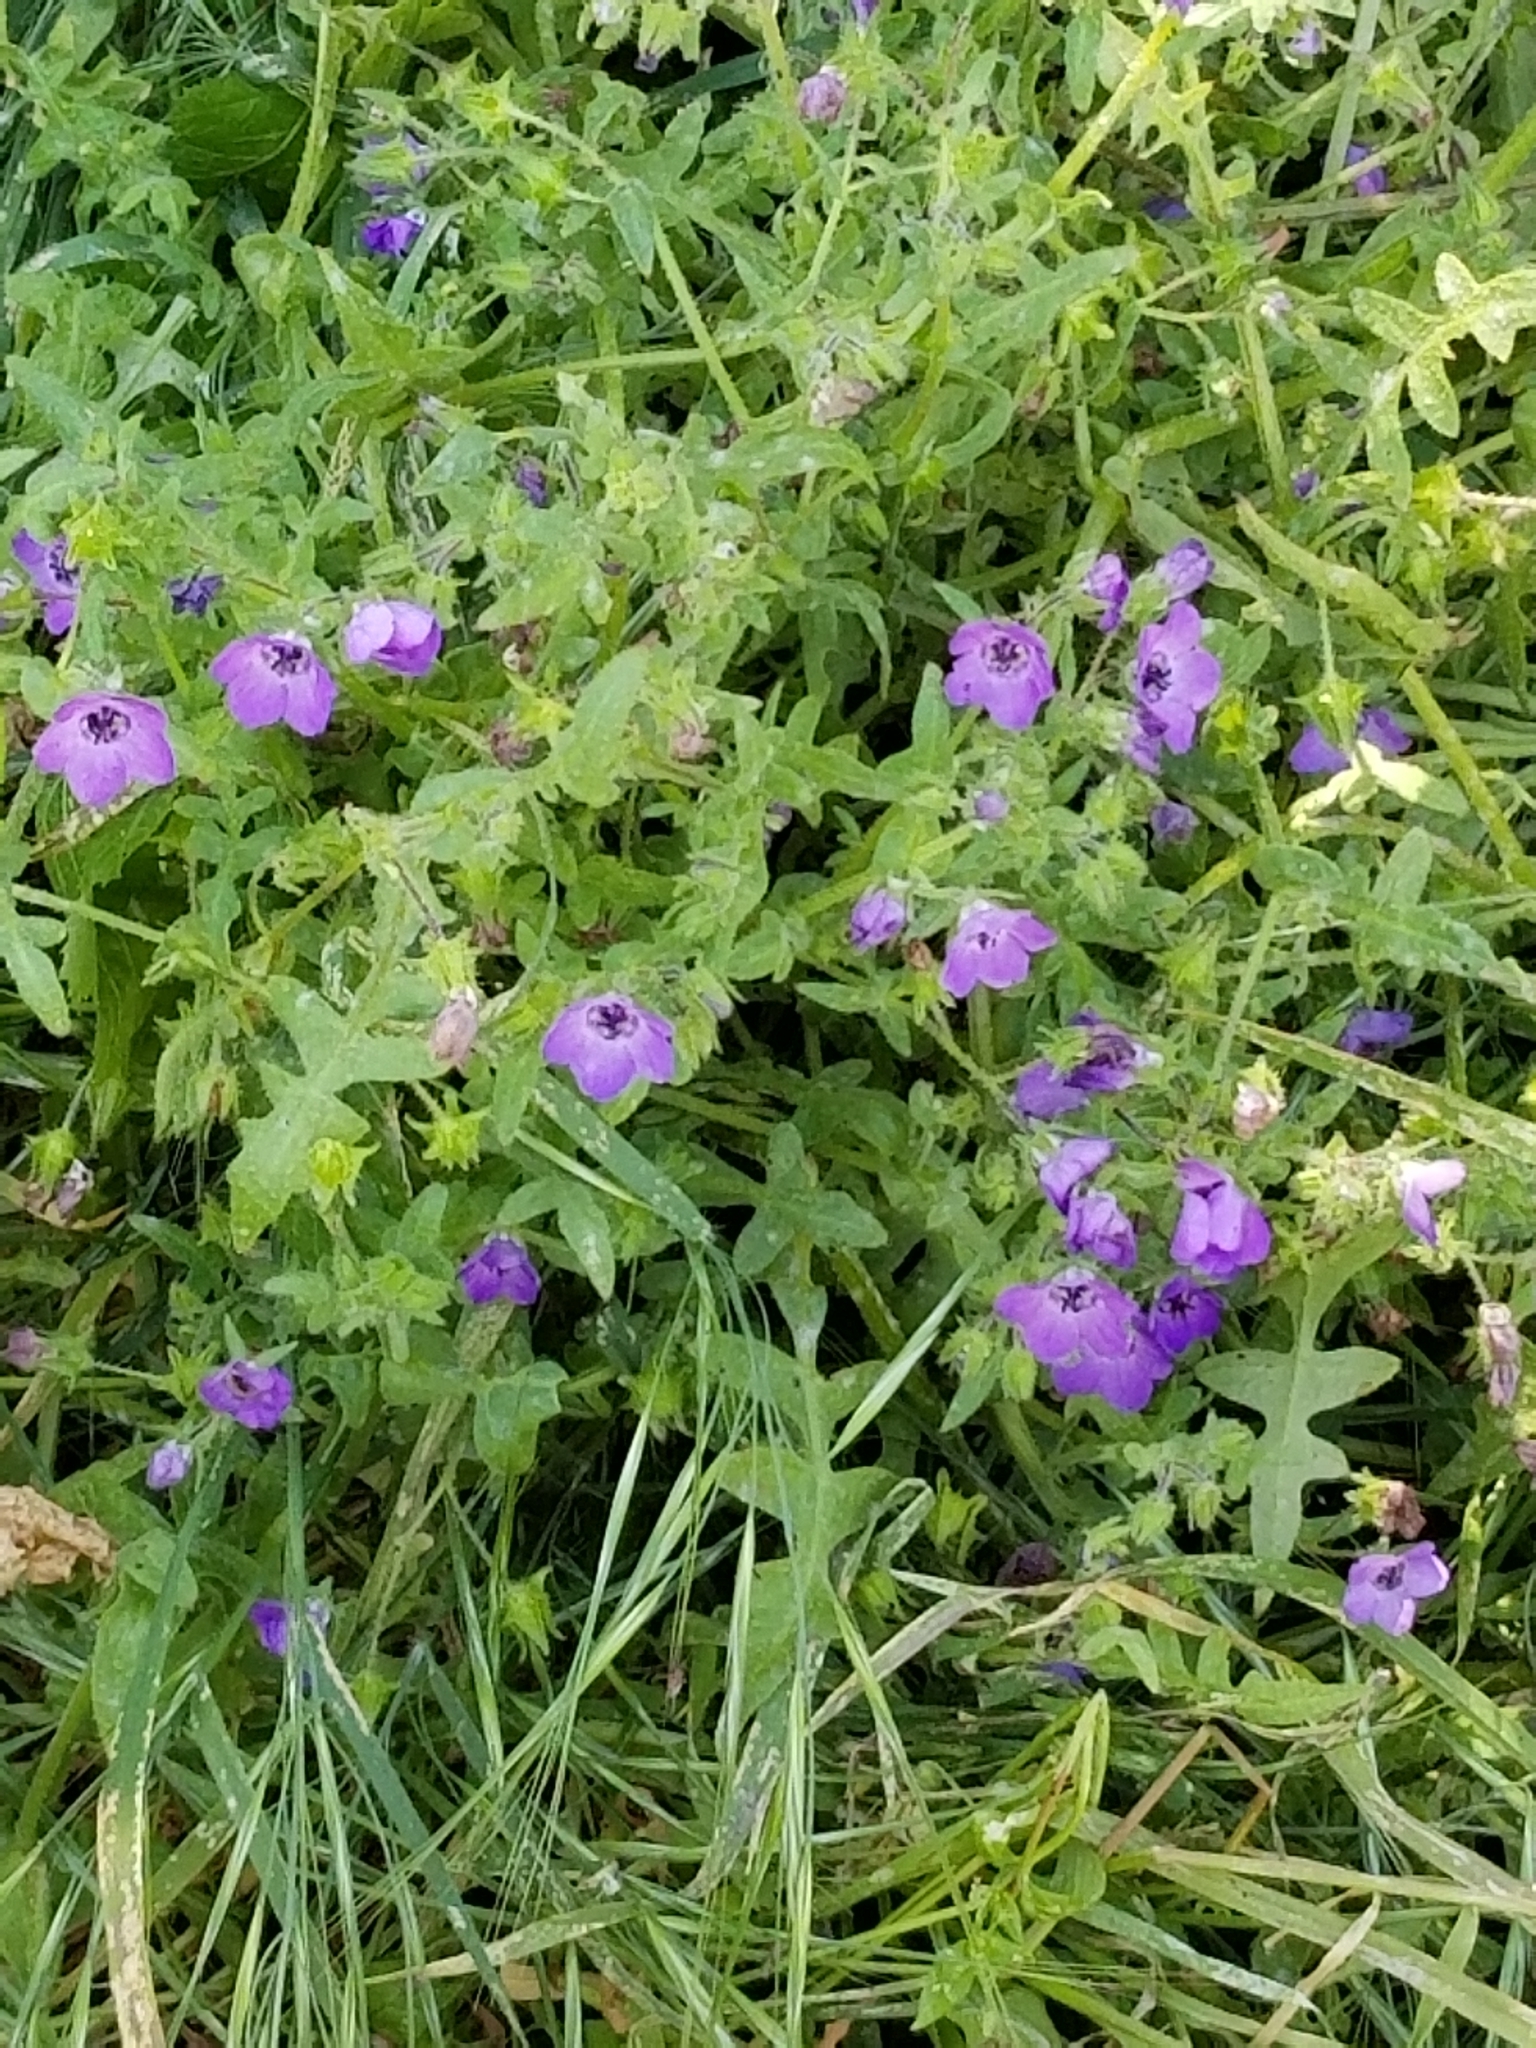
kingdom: Plantae
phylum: Tracheophyta
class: Magnoliopsida
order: Boraginales
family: Hydrophyllaceae
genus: Pholistoma
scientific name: Pholistoma auritum
